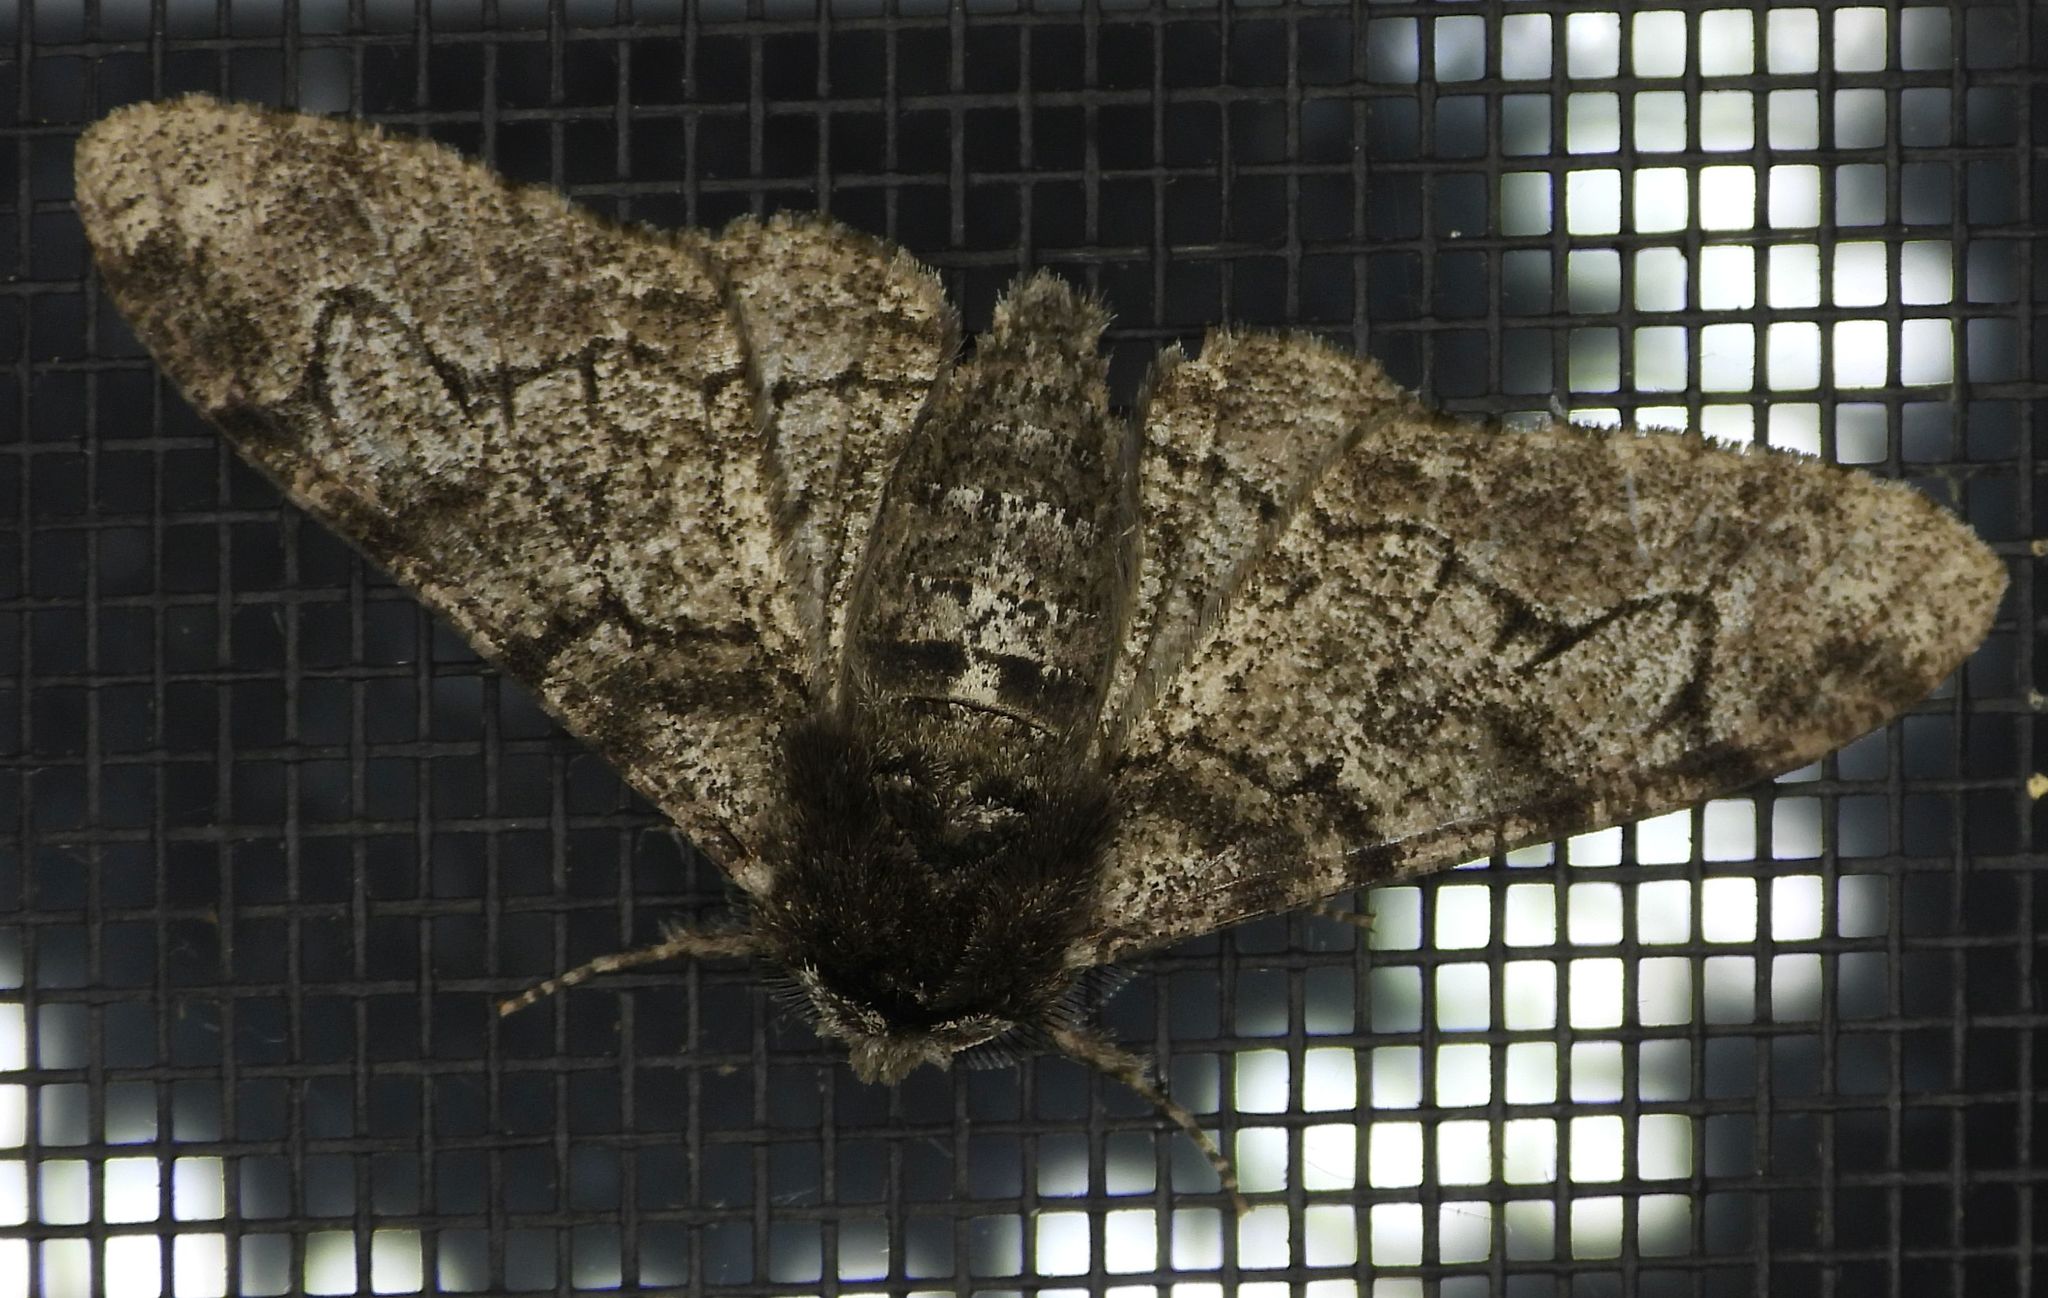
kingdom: Animalia
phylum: Arthropoda
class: Insecta
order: Lepidoptera
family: Geometridae
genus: Biston
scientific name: Biston betularia
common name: Peppered moth
